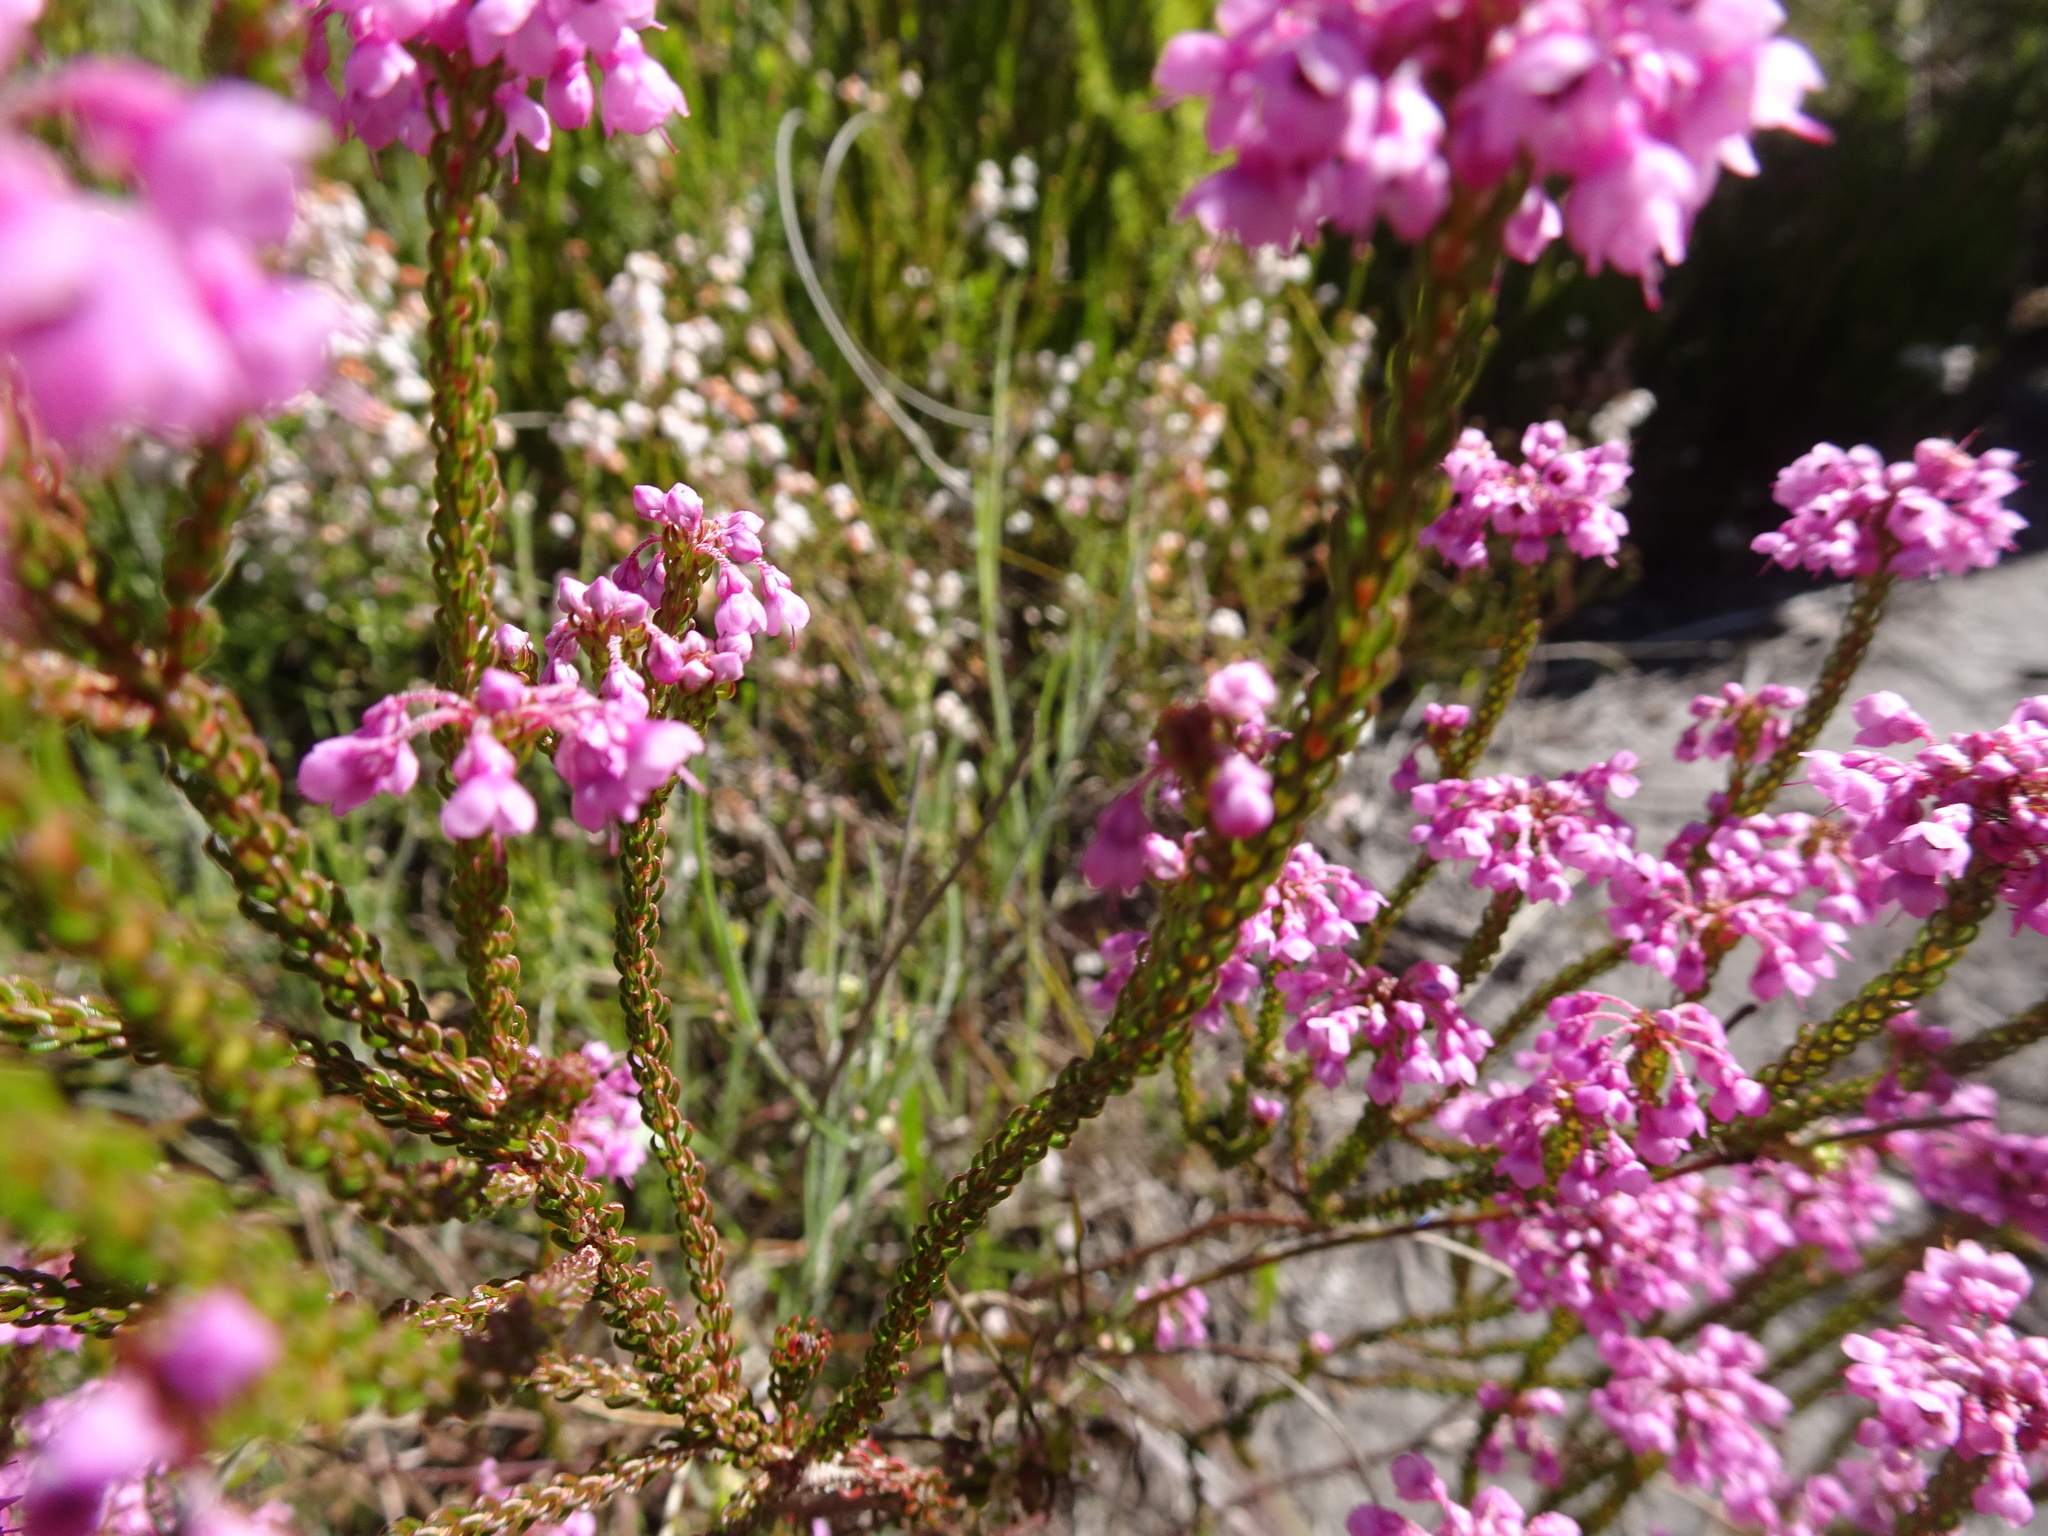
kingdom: Plantae
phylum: Tracheophyta
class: Magnoliopsida
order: Ericales
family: Ericaceae
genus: Erica
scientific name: Erica seriphiifolia
